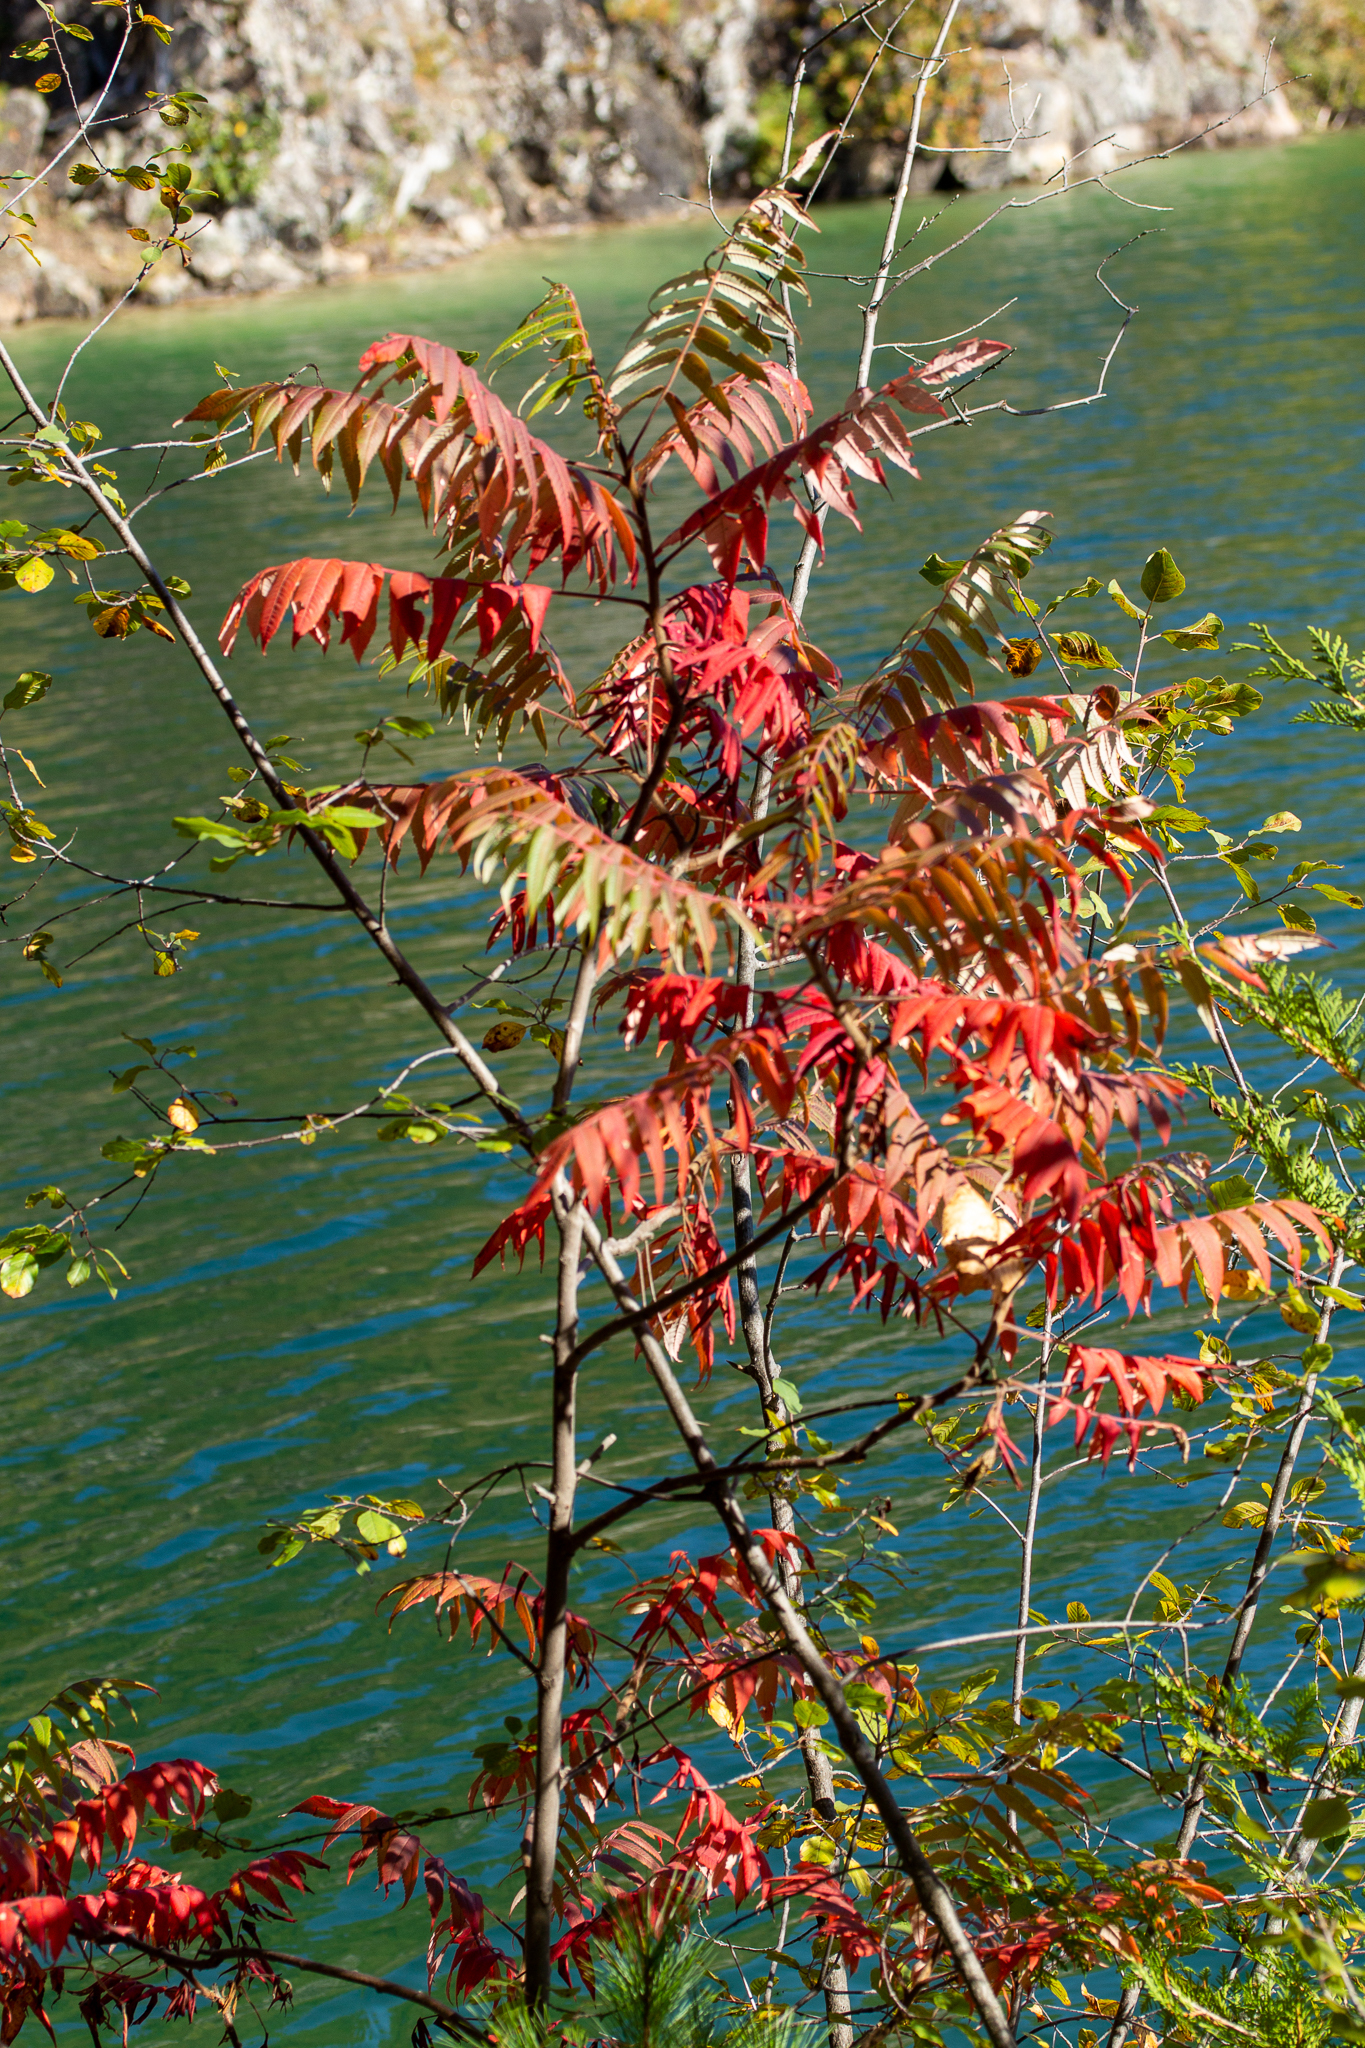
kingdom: Plantae
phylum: Tracheophyta
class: Magnoliopsida
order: Sapindales
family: Anacardiaceae
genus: Rhus
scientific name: Rhus typhina
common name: Staghorn sumac
